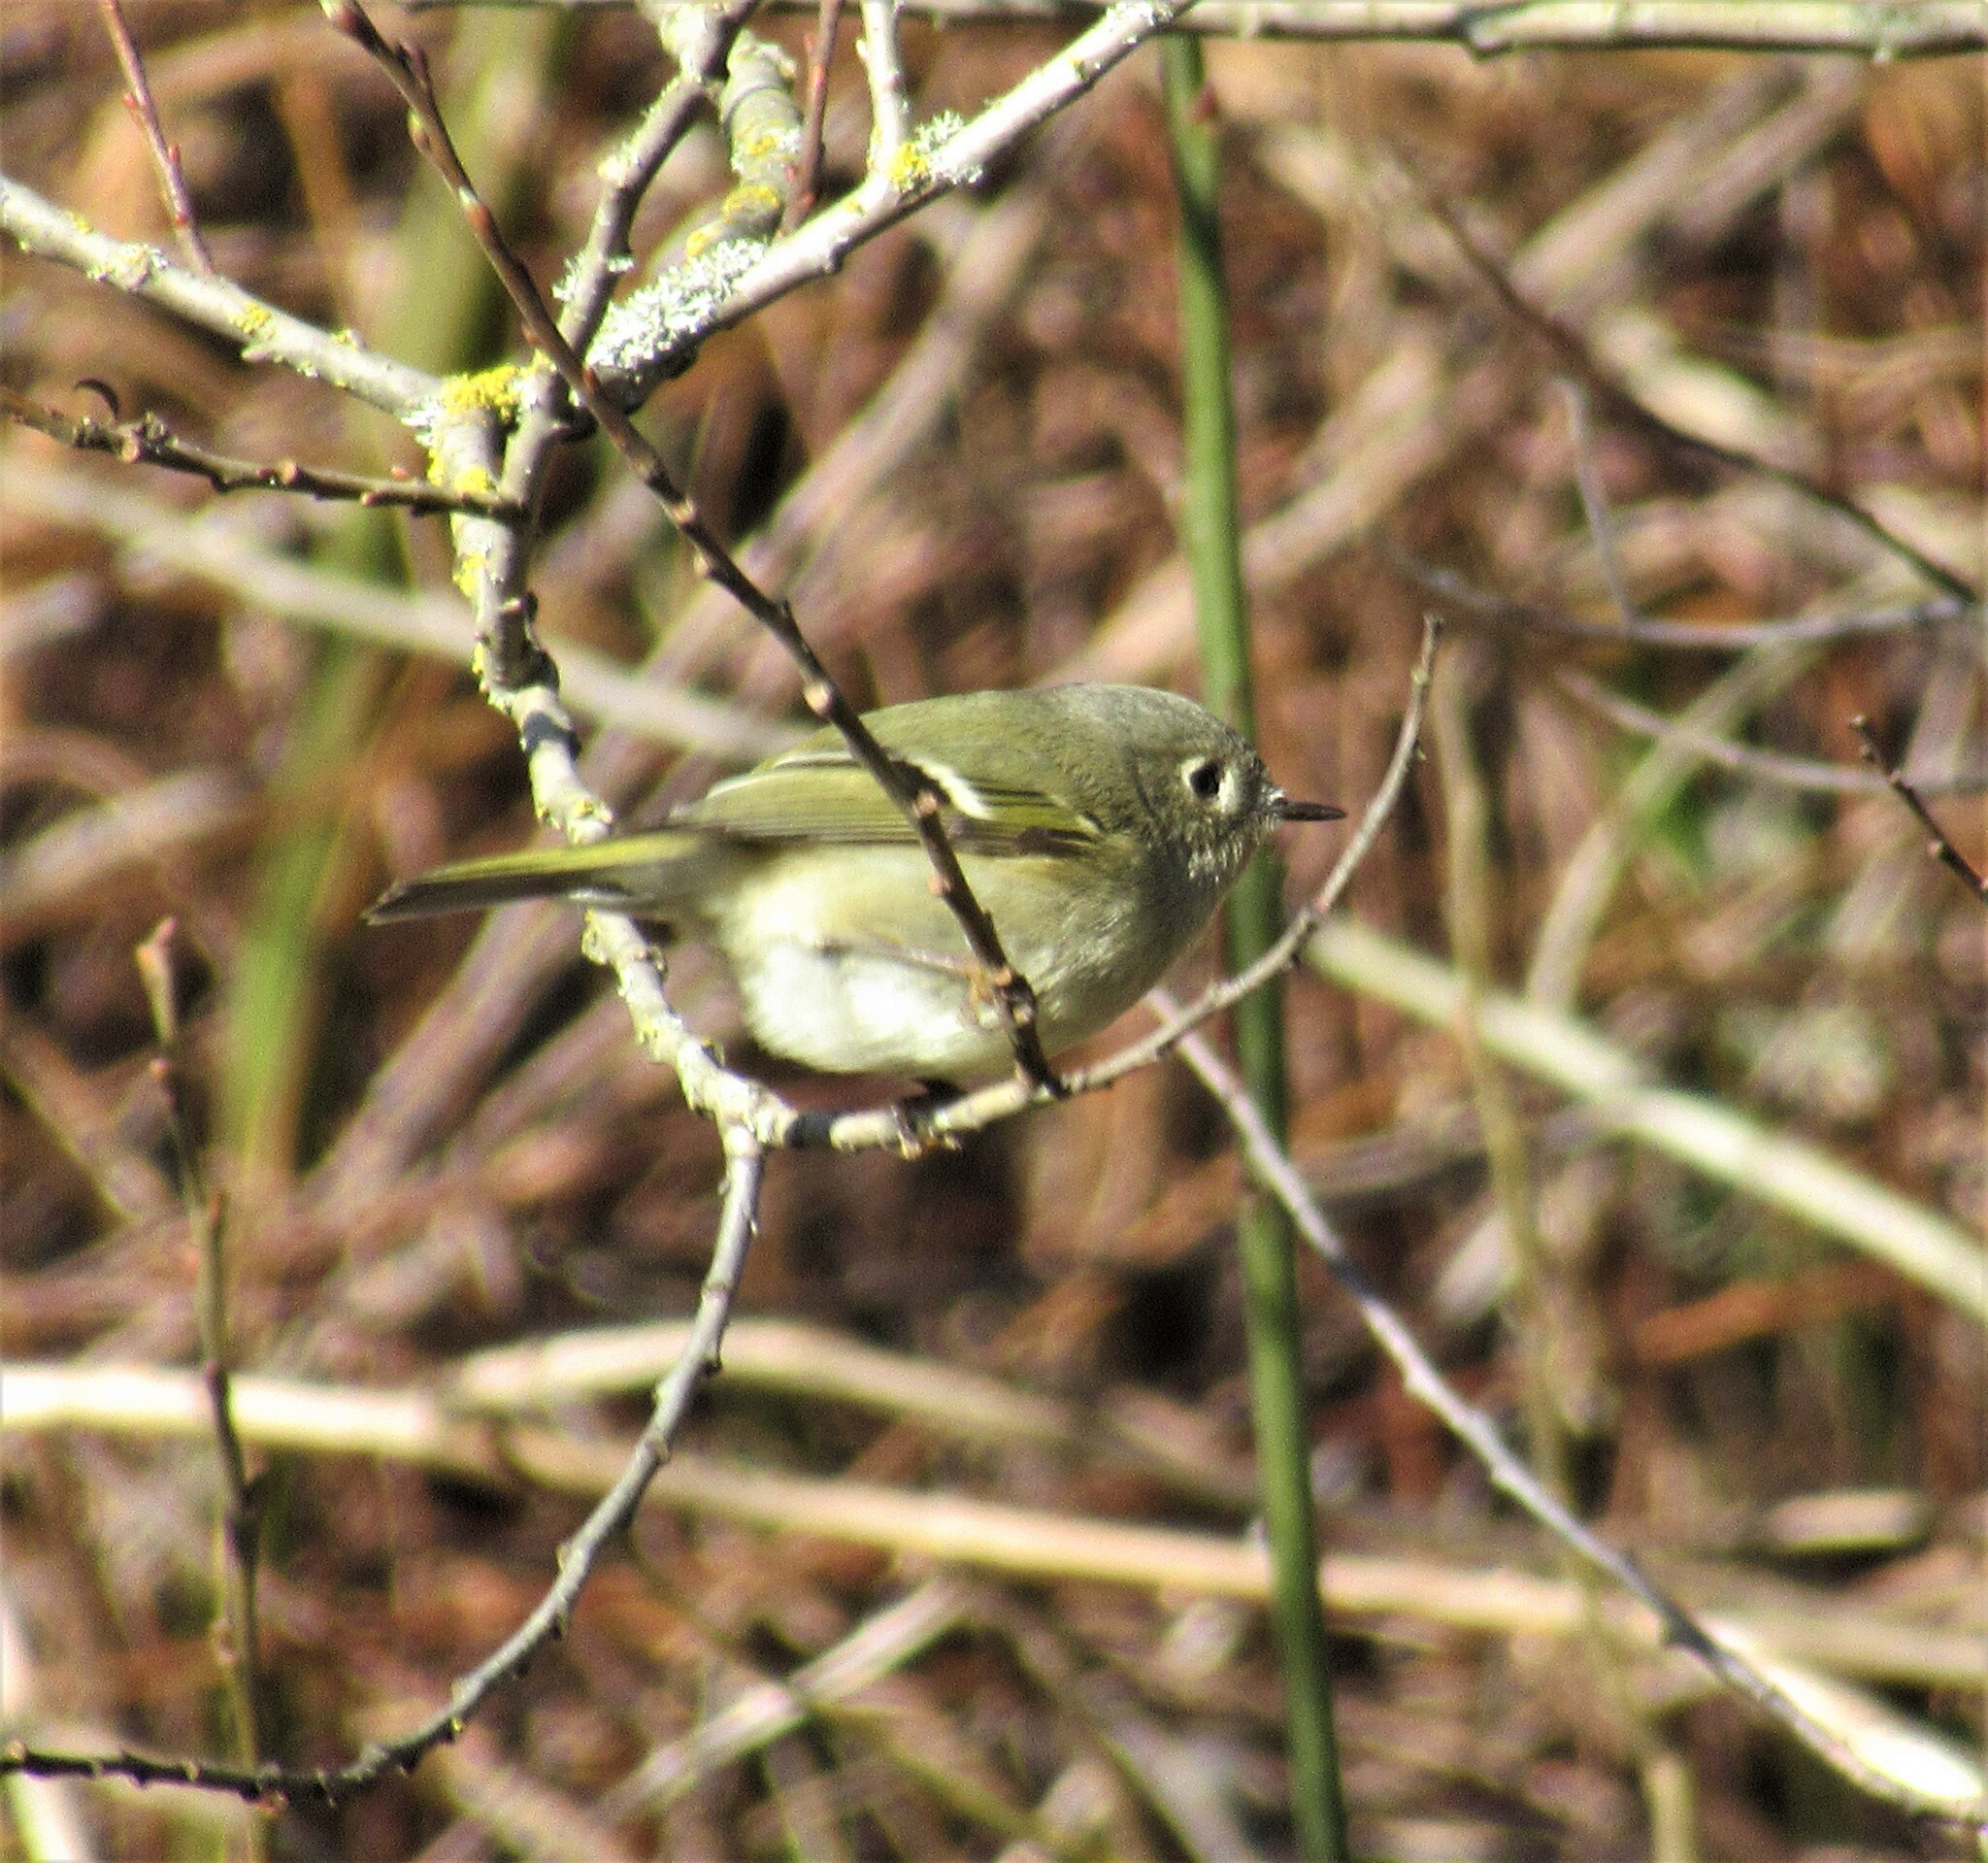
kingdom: Animalia
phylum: Chordata
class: Aves
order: Passeriformes
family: Regulidae
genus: Regulus
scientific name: Regulus calendula
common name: Ruby-crowned kinglet
